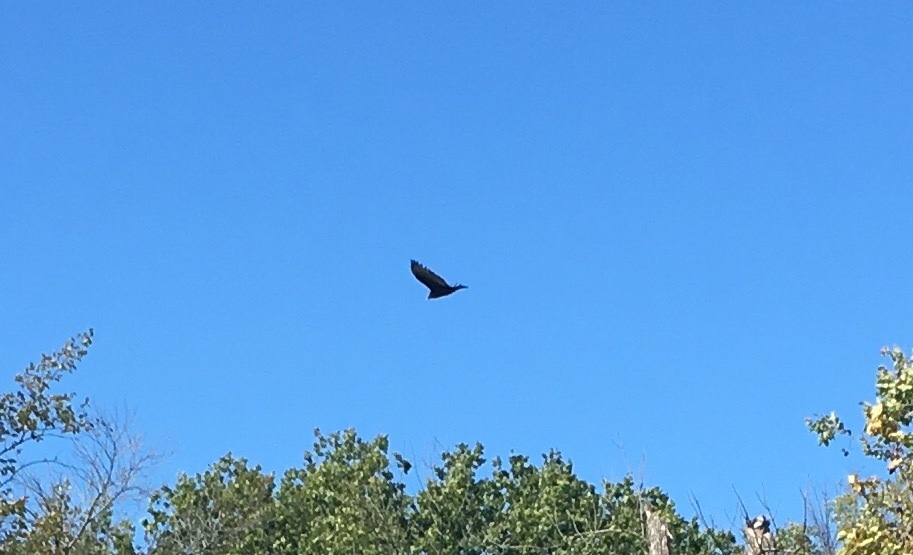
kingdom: Animalia
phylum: Chordata
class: Aves
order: Accipitriformes
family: Cathartidae
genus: Cathartes
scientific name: Cathartes aura
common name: Turkey vulture
